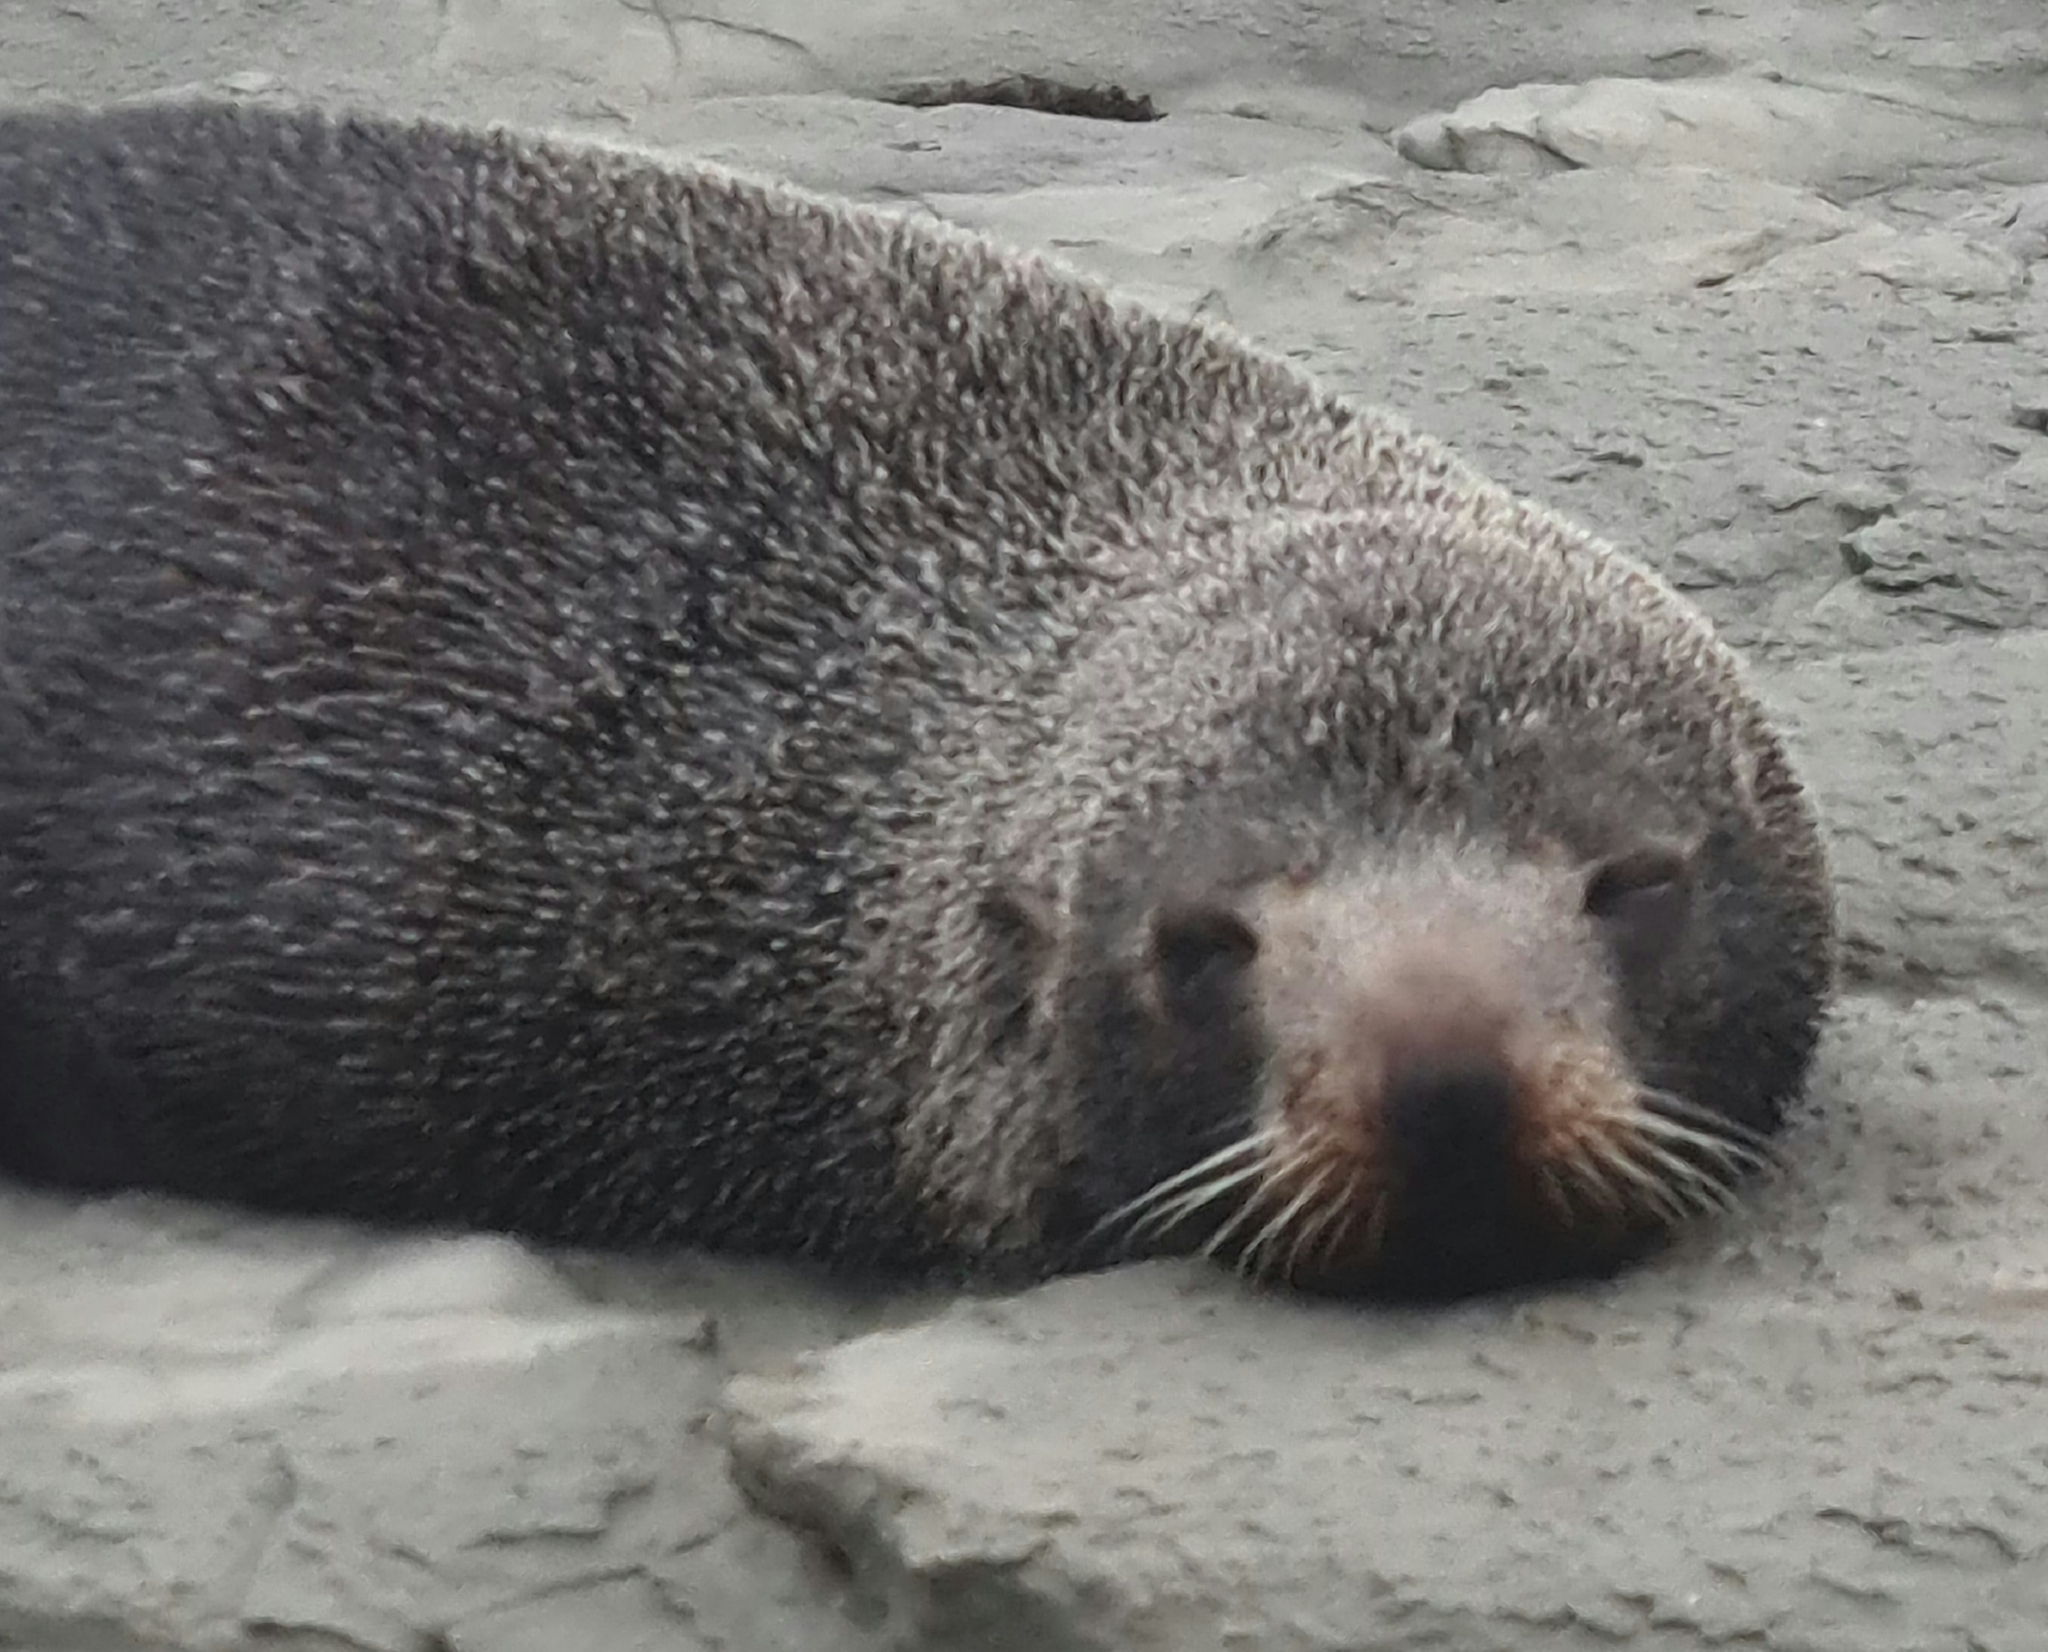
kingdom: Animalia
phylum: Chordata
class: Mammalia
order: Carnivora
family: Otariidae
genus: Arctocephalus
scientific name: Arctocephalus forsteri
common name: New zealand fur seal
